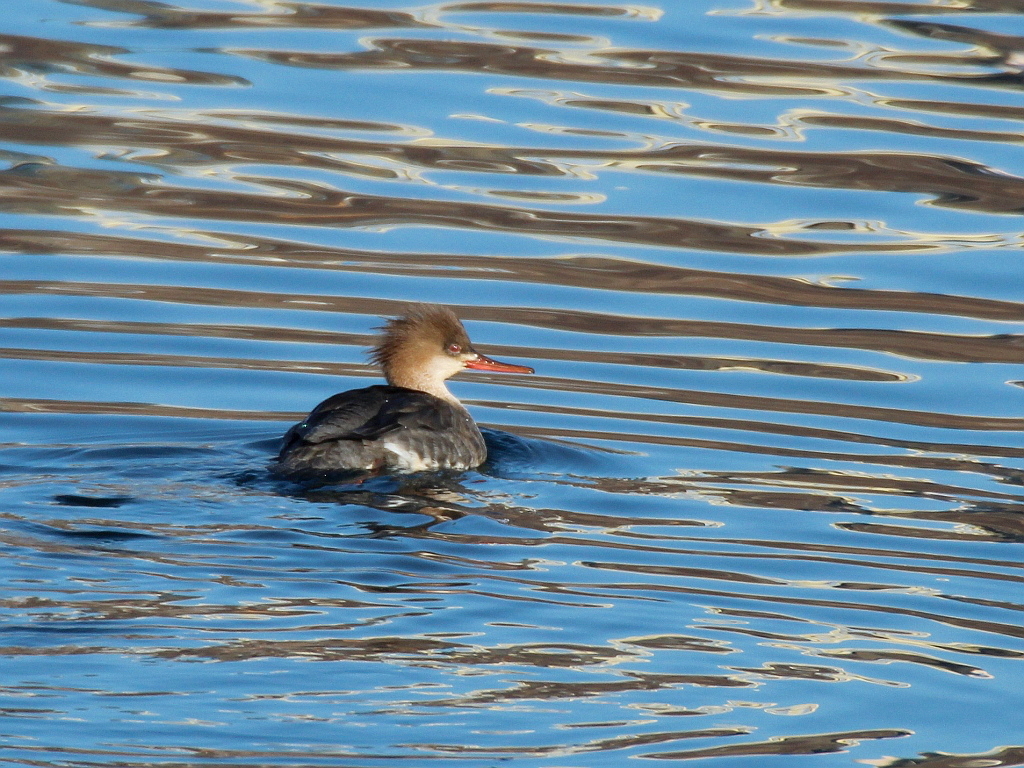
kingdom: Animalia
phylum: Chordata
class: Aves
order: Anseriformes
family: Anatidae
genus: Mergus
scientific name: Mergus serrator
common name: Red-breasted merganser
